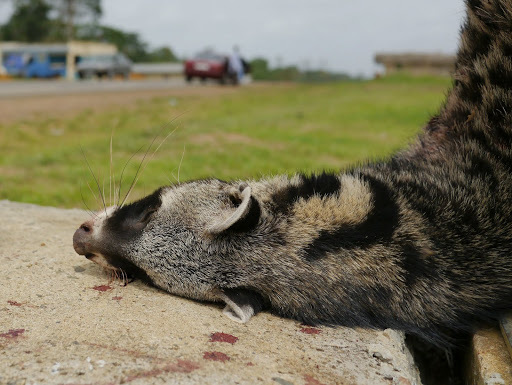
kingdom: Animalia
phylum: Chordata
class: Mammalia
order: Carnivora
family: Viverridae
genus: Civettictis
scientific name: Civettictis civetta
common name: African civet
